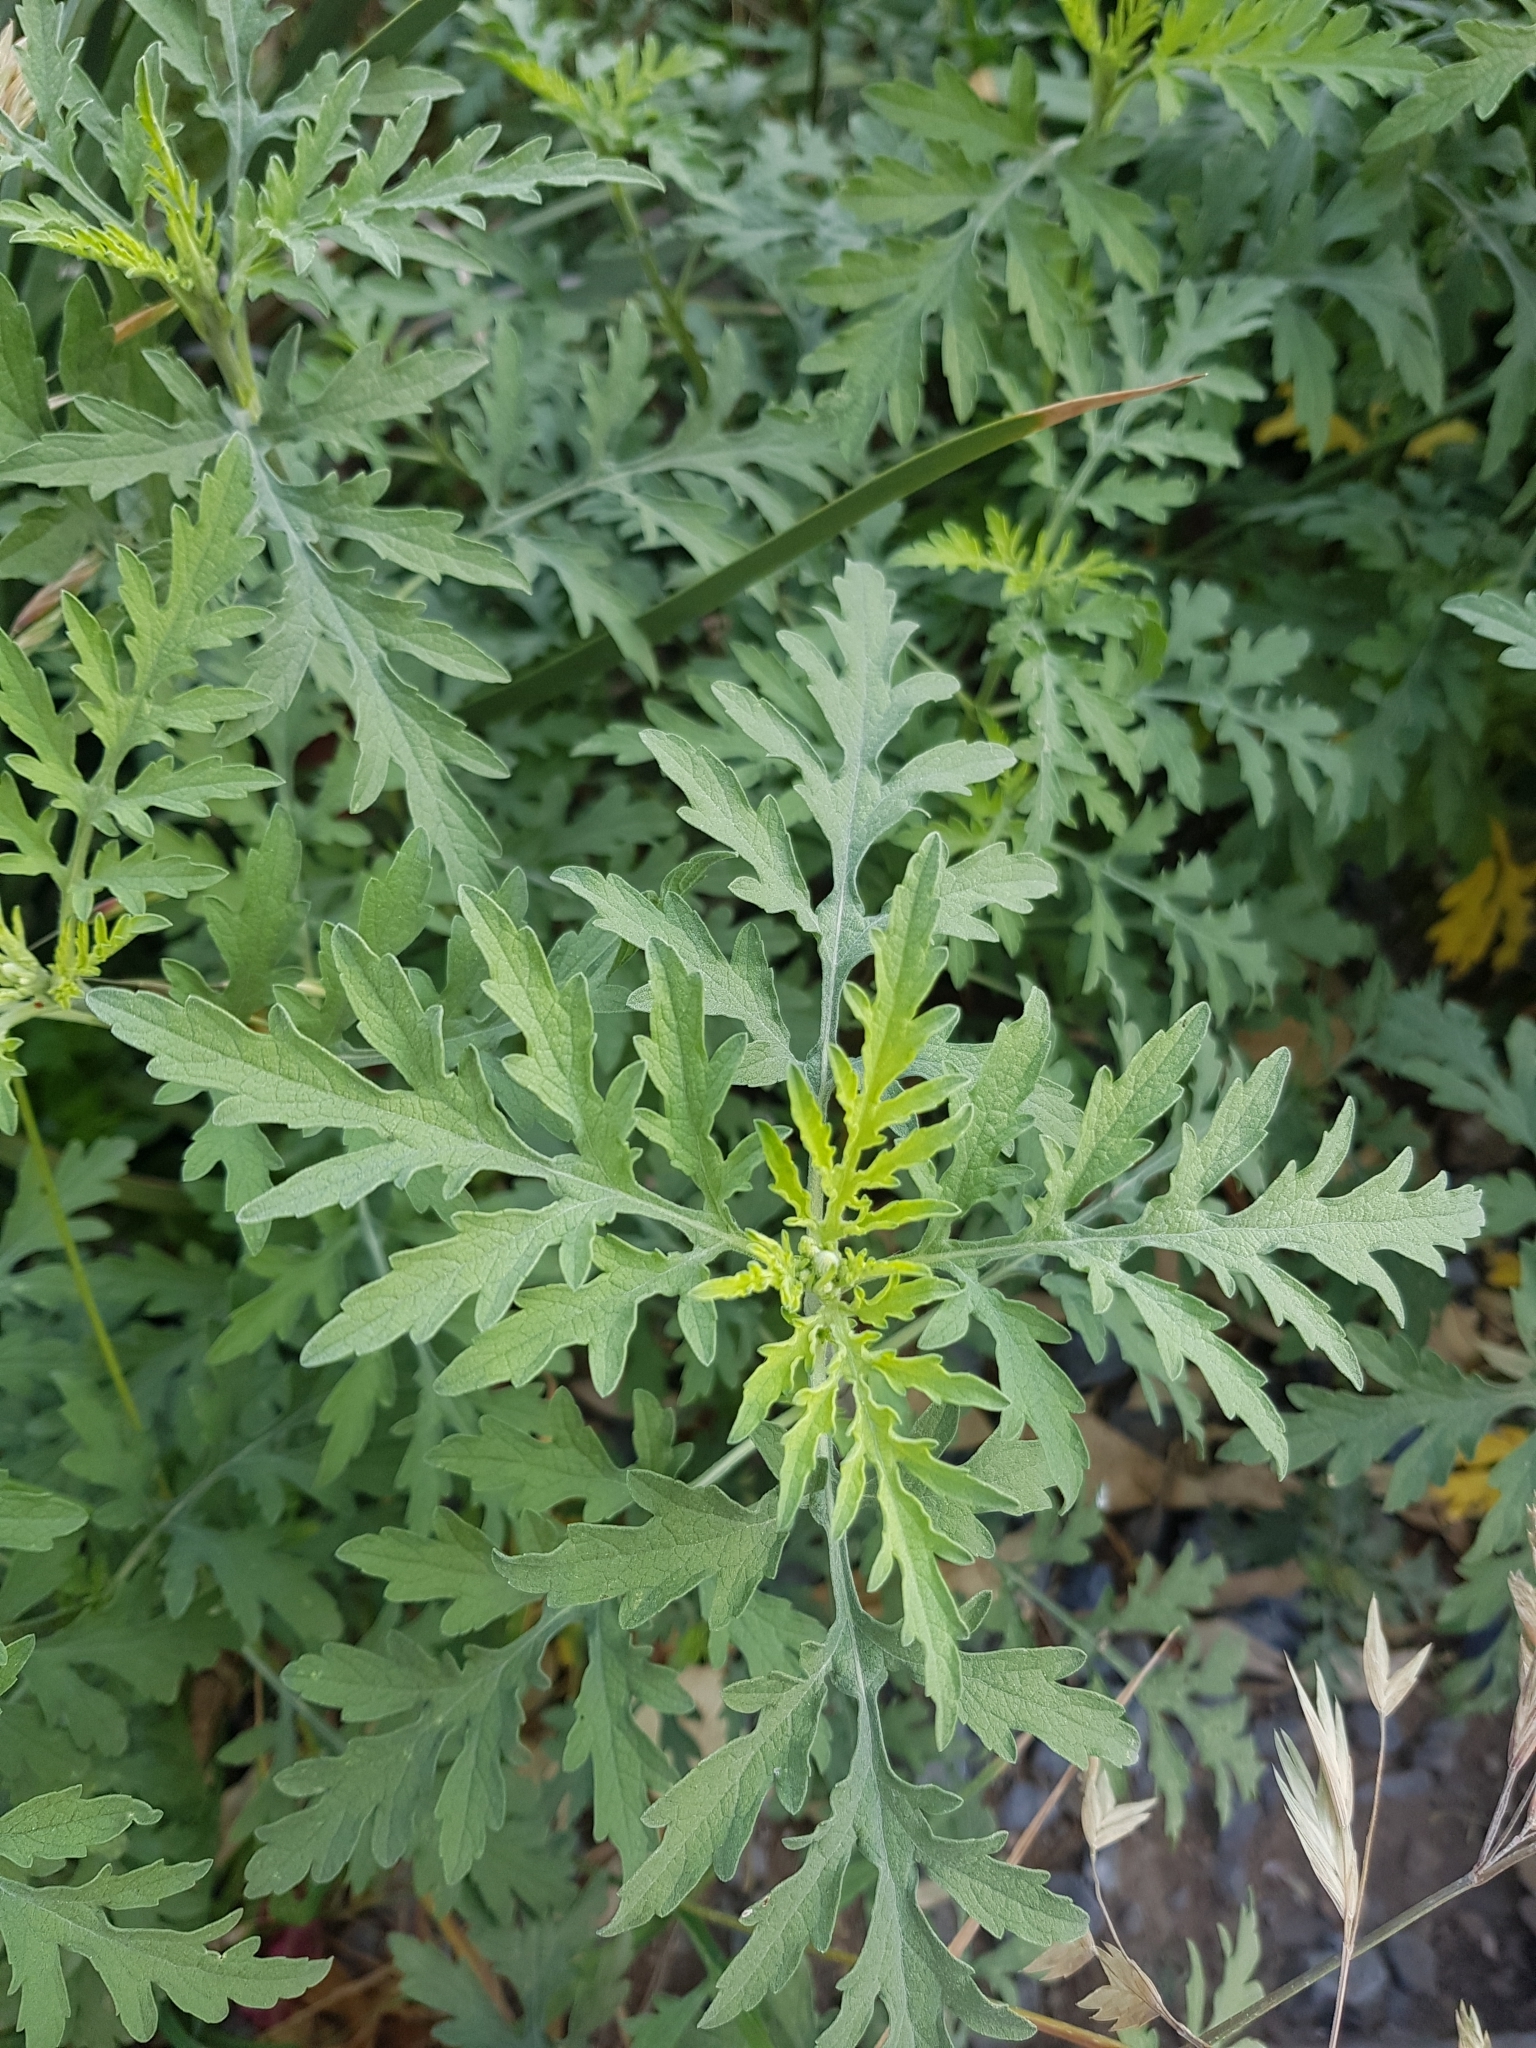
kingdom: Plantae
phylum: Tracheophyta
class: Magnoliopsida
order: Asterales
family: Asteraceae
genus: Ambrosia
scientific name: Ambrosia confertiflora
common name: Bur ragweed
